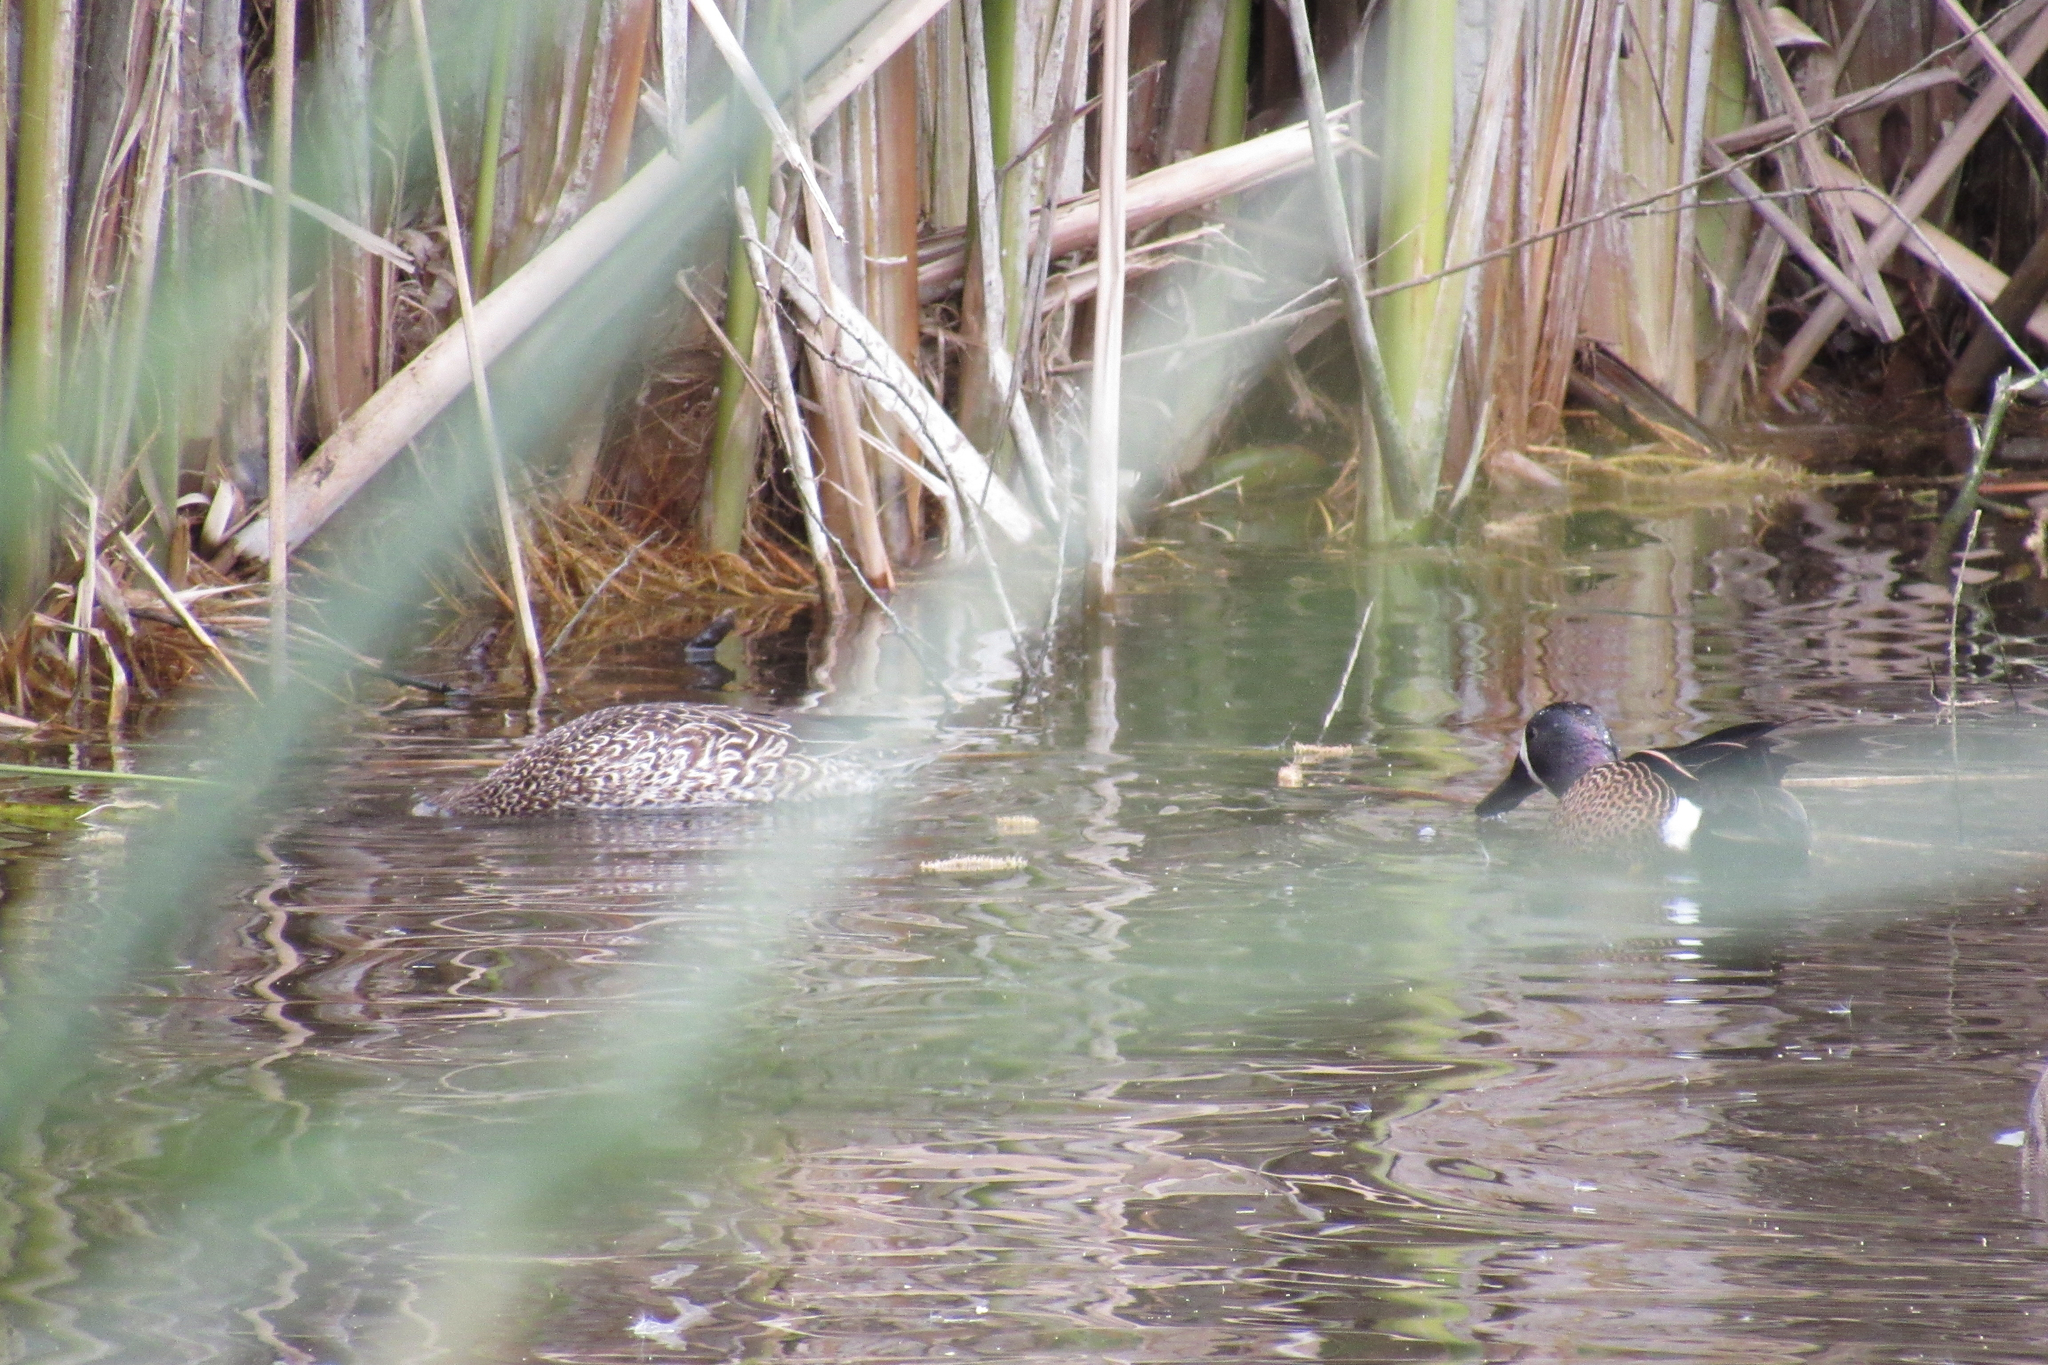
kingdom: Animalia
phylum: Chordata
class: Aves
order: Anseriformes
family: Anatidae
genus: Spatula
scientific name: Spatula discors
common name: Blue-winged teal
